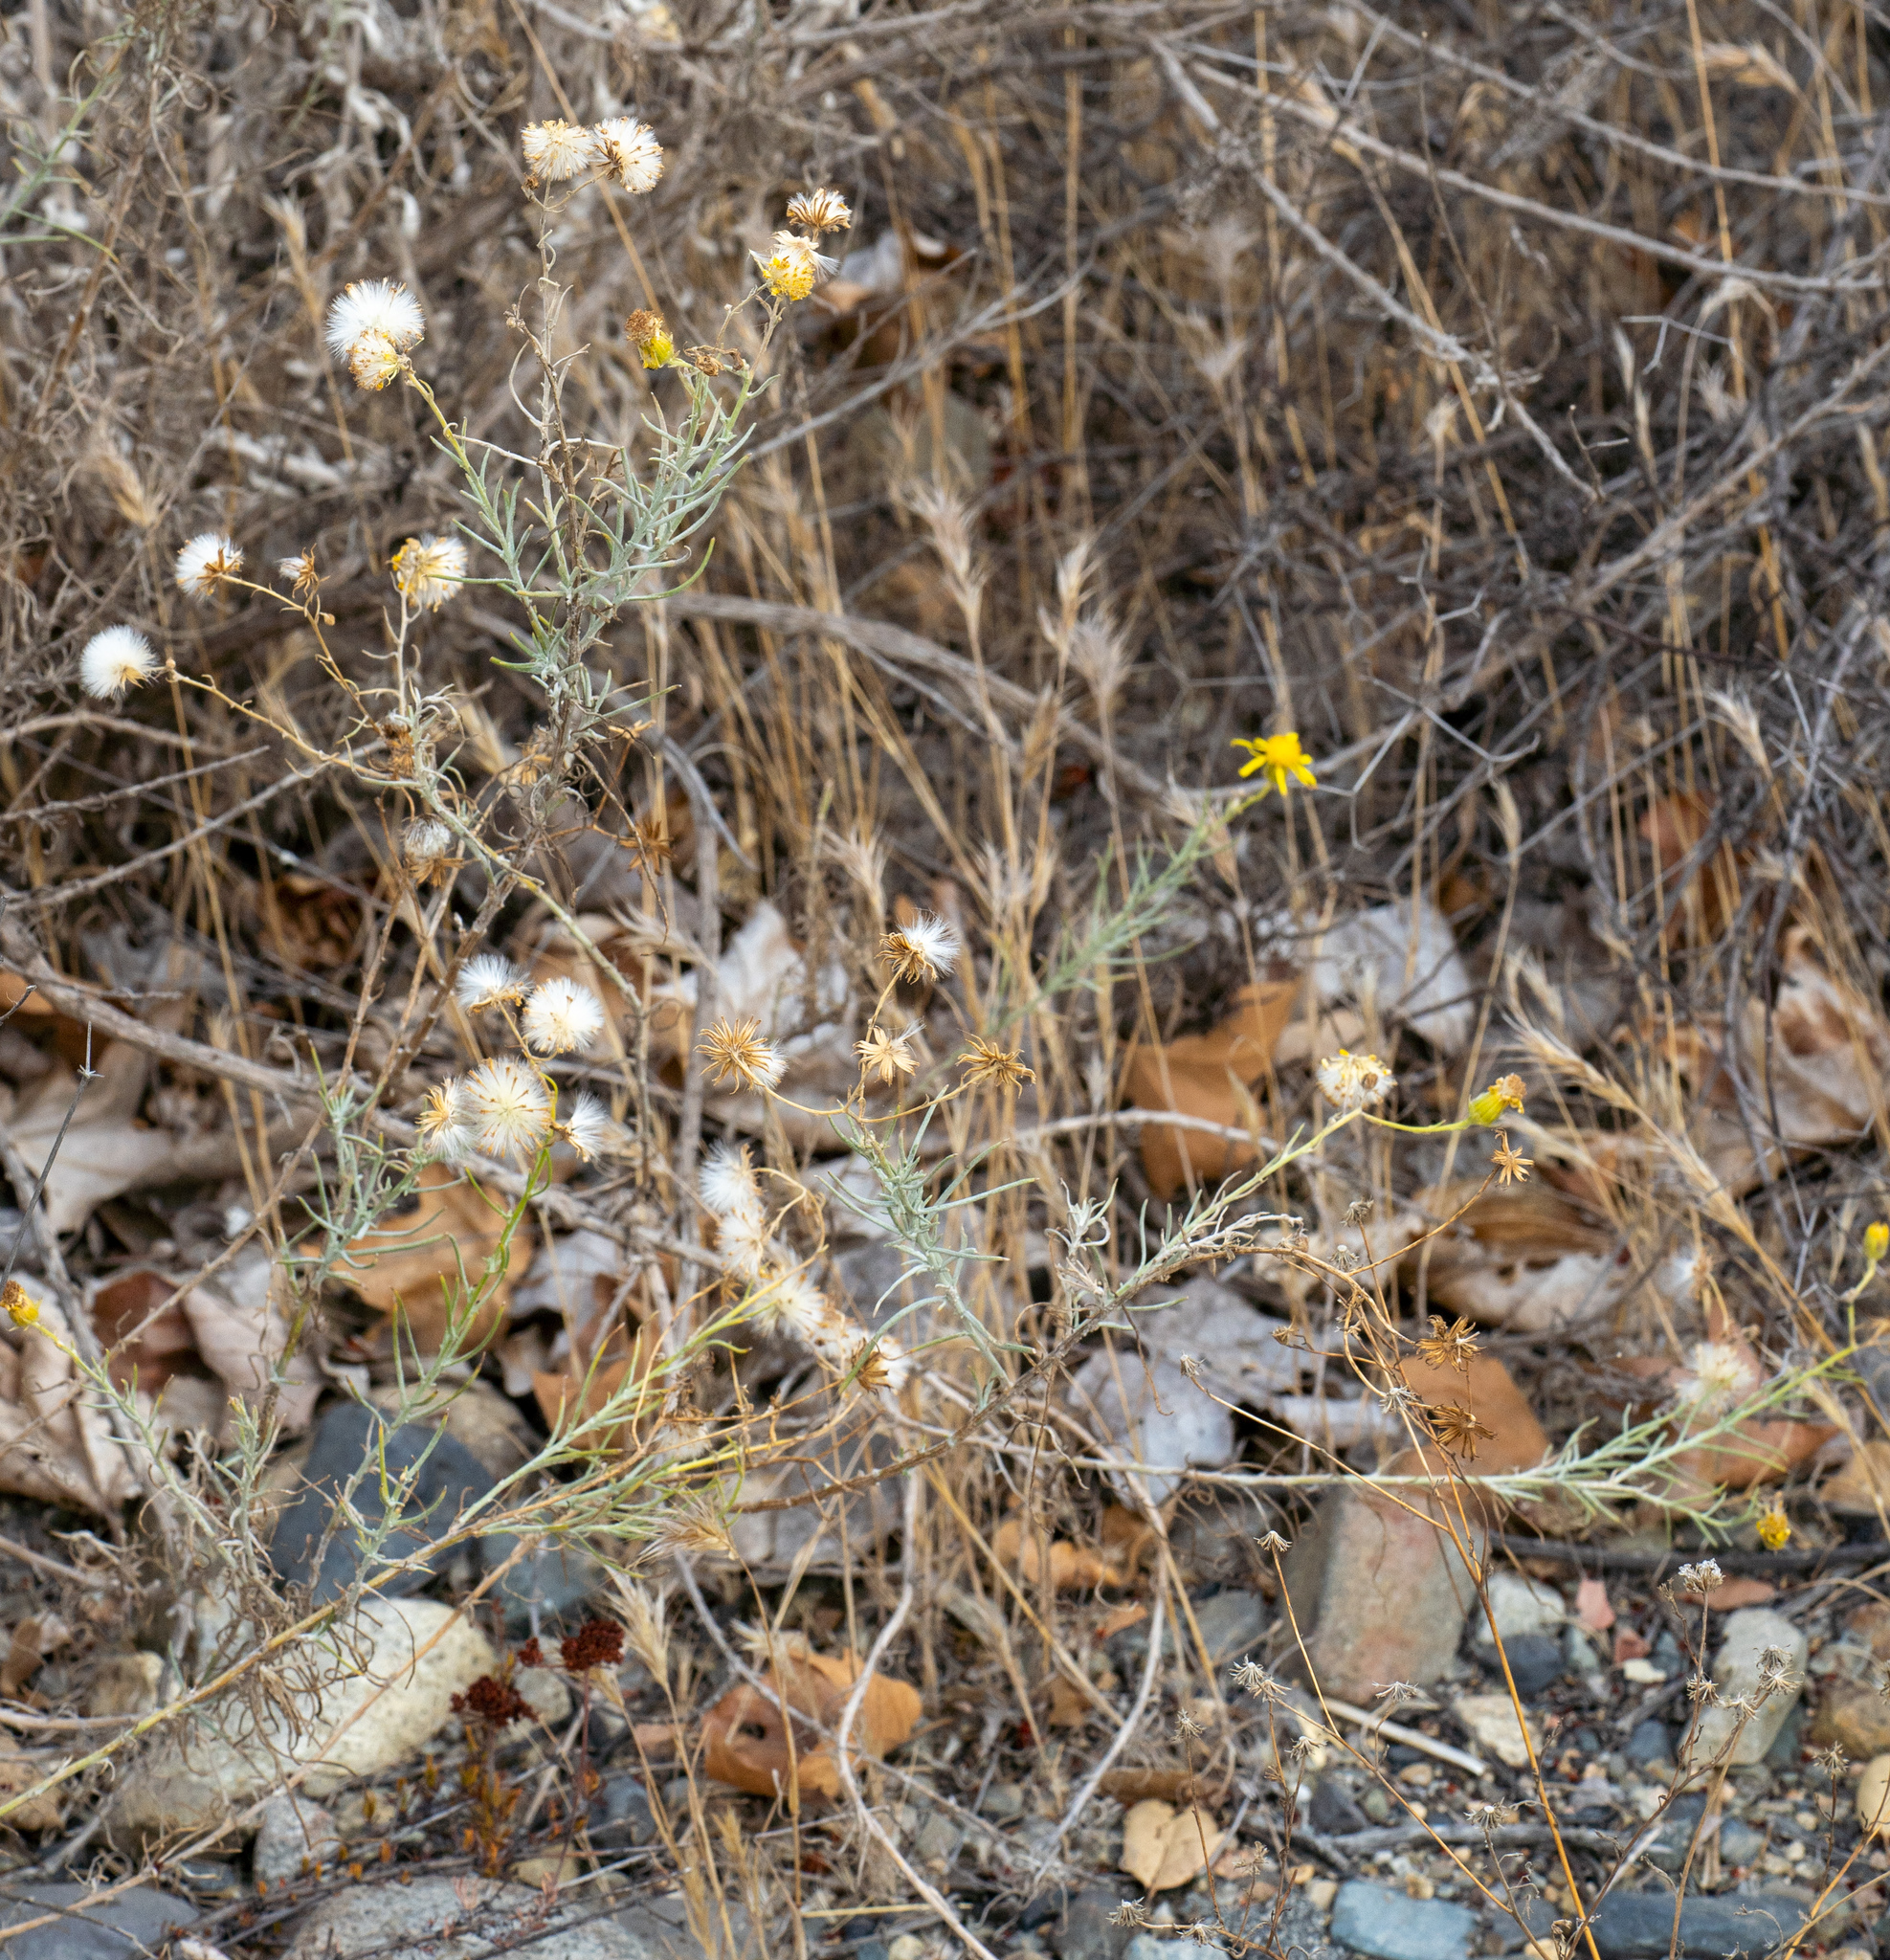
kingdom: Plantae
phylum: Tracheophyta
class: Magnoliopsida
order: Asterales
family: Asteraceae
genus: Senecio
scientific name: Senecio flaccidus
